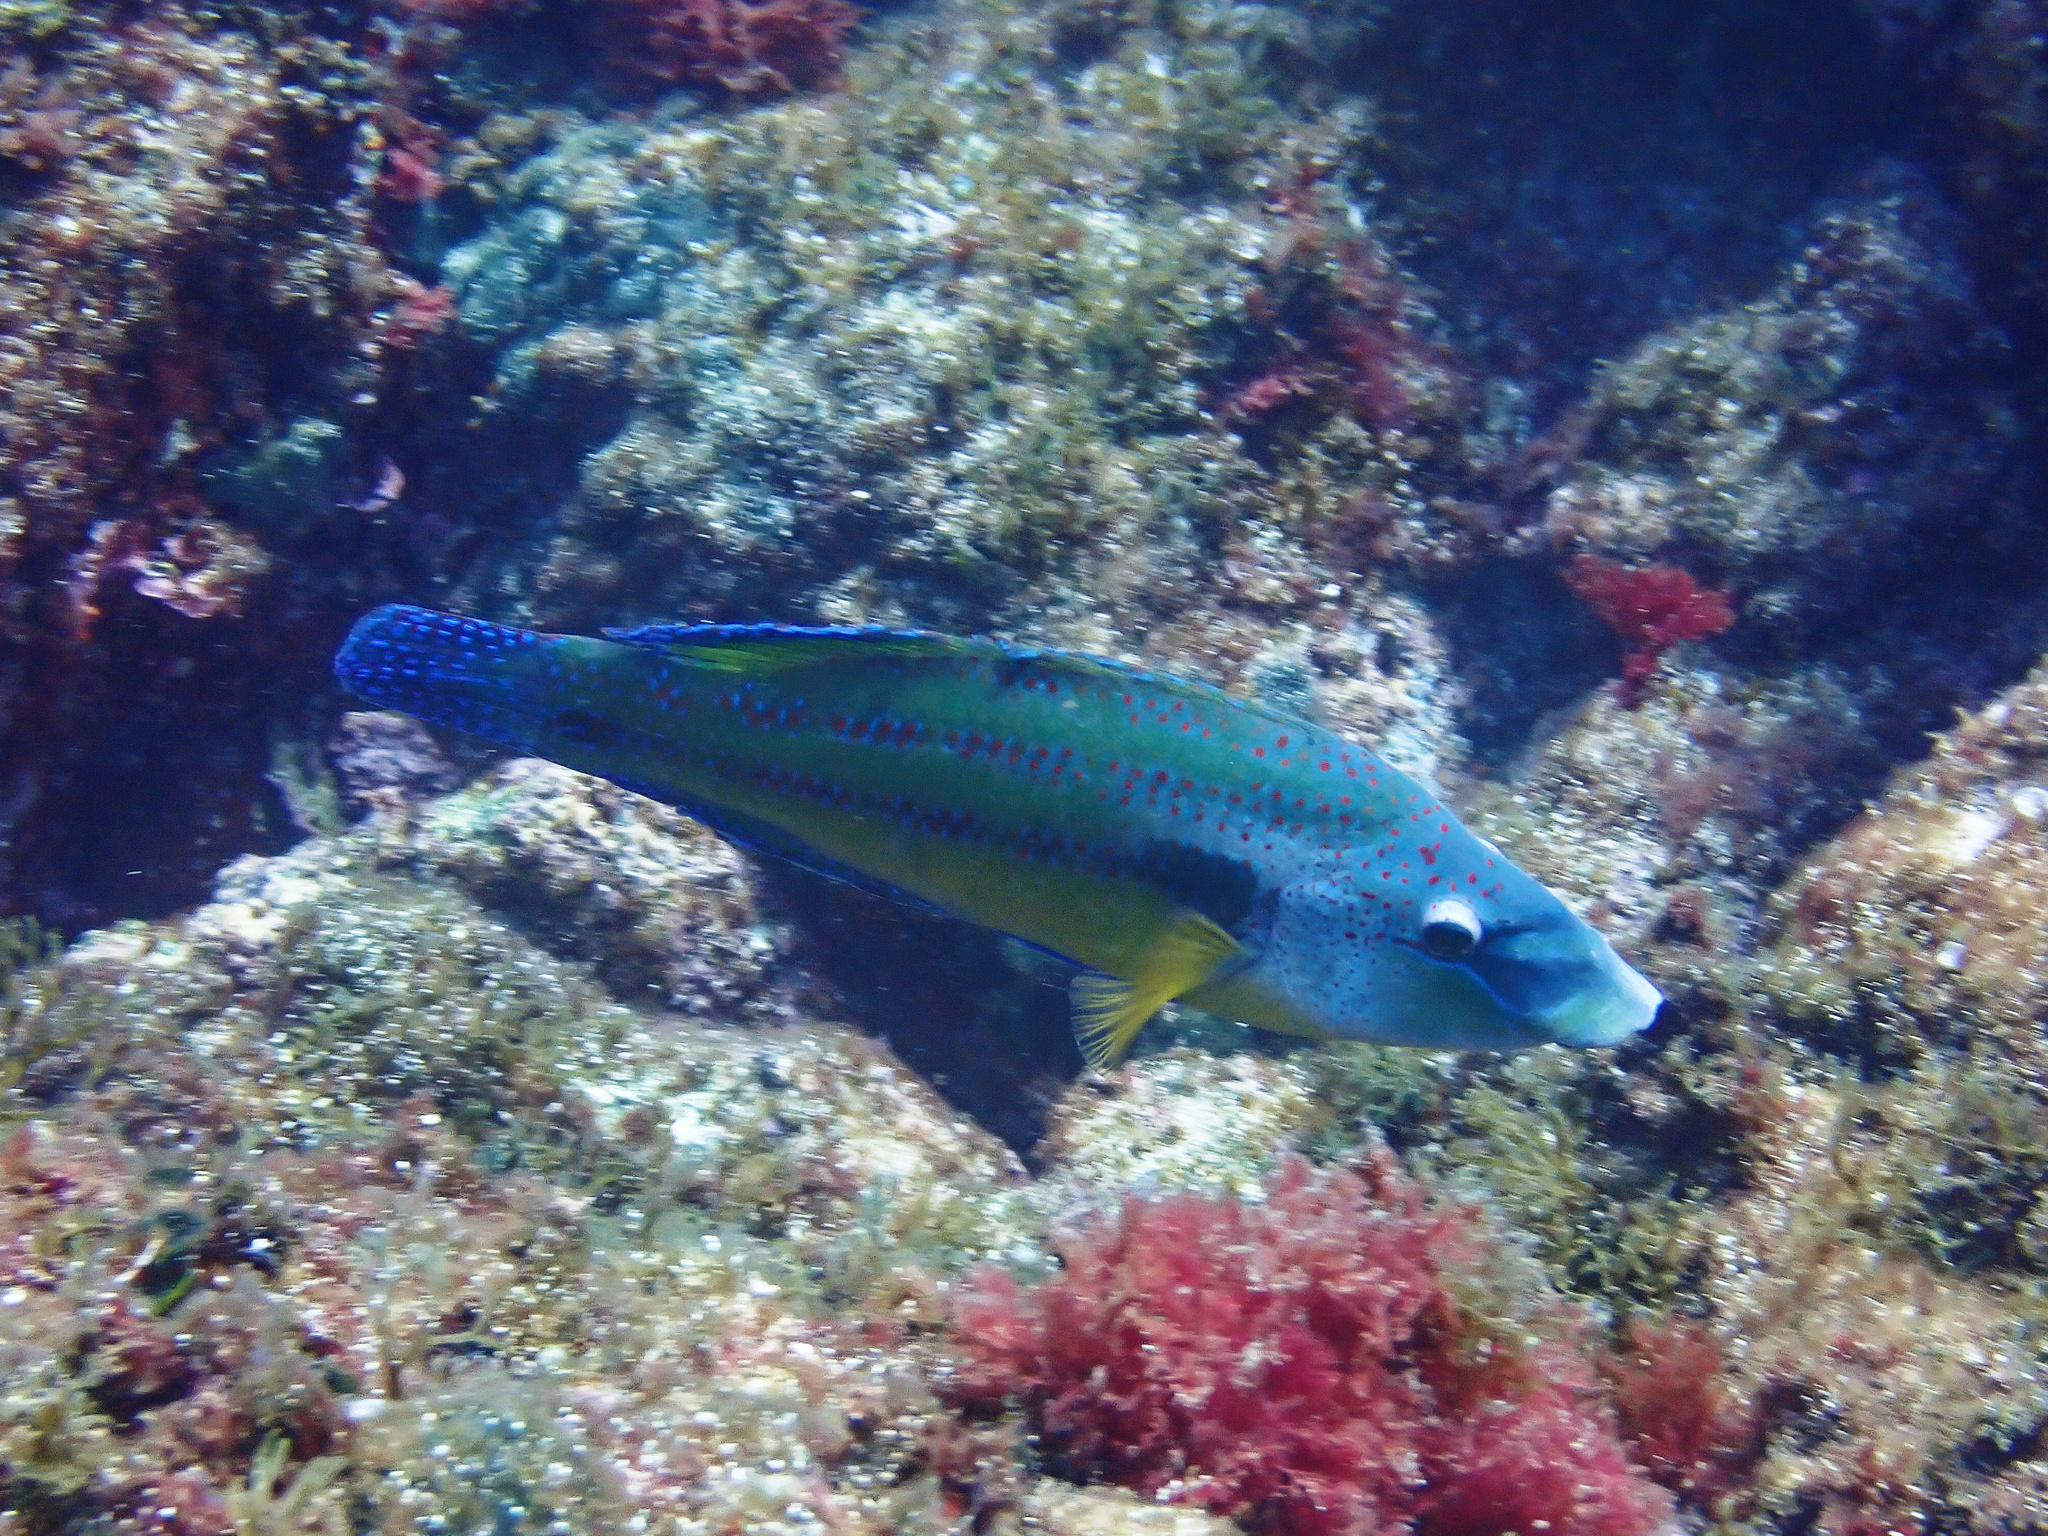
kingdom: Animalia
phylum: Chordata
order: Perciformes
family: Labridae
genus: Symphodus
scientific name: Symphodus tinca
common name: Peacock wrasse
